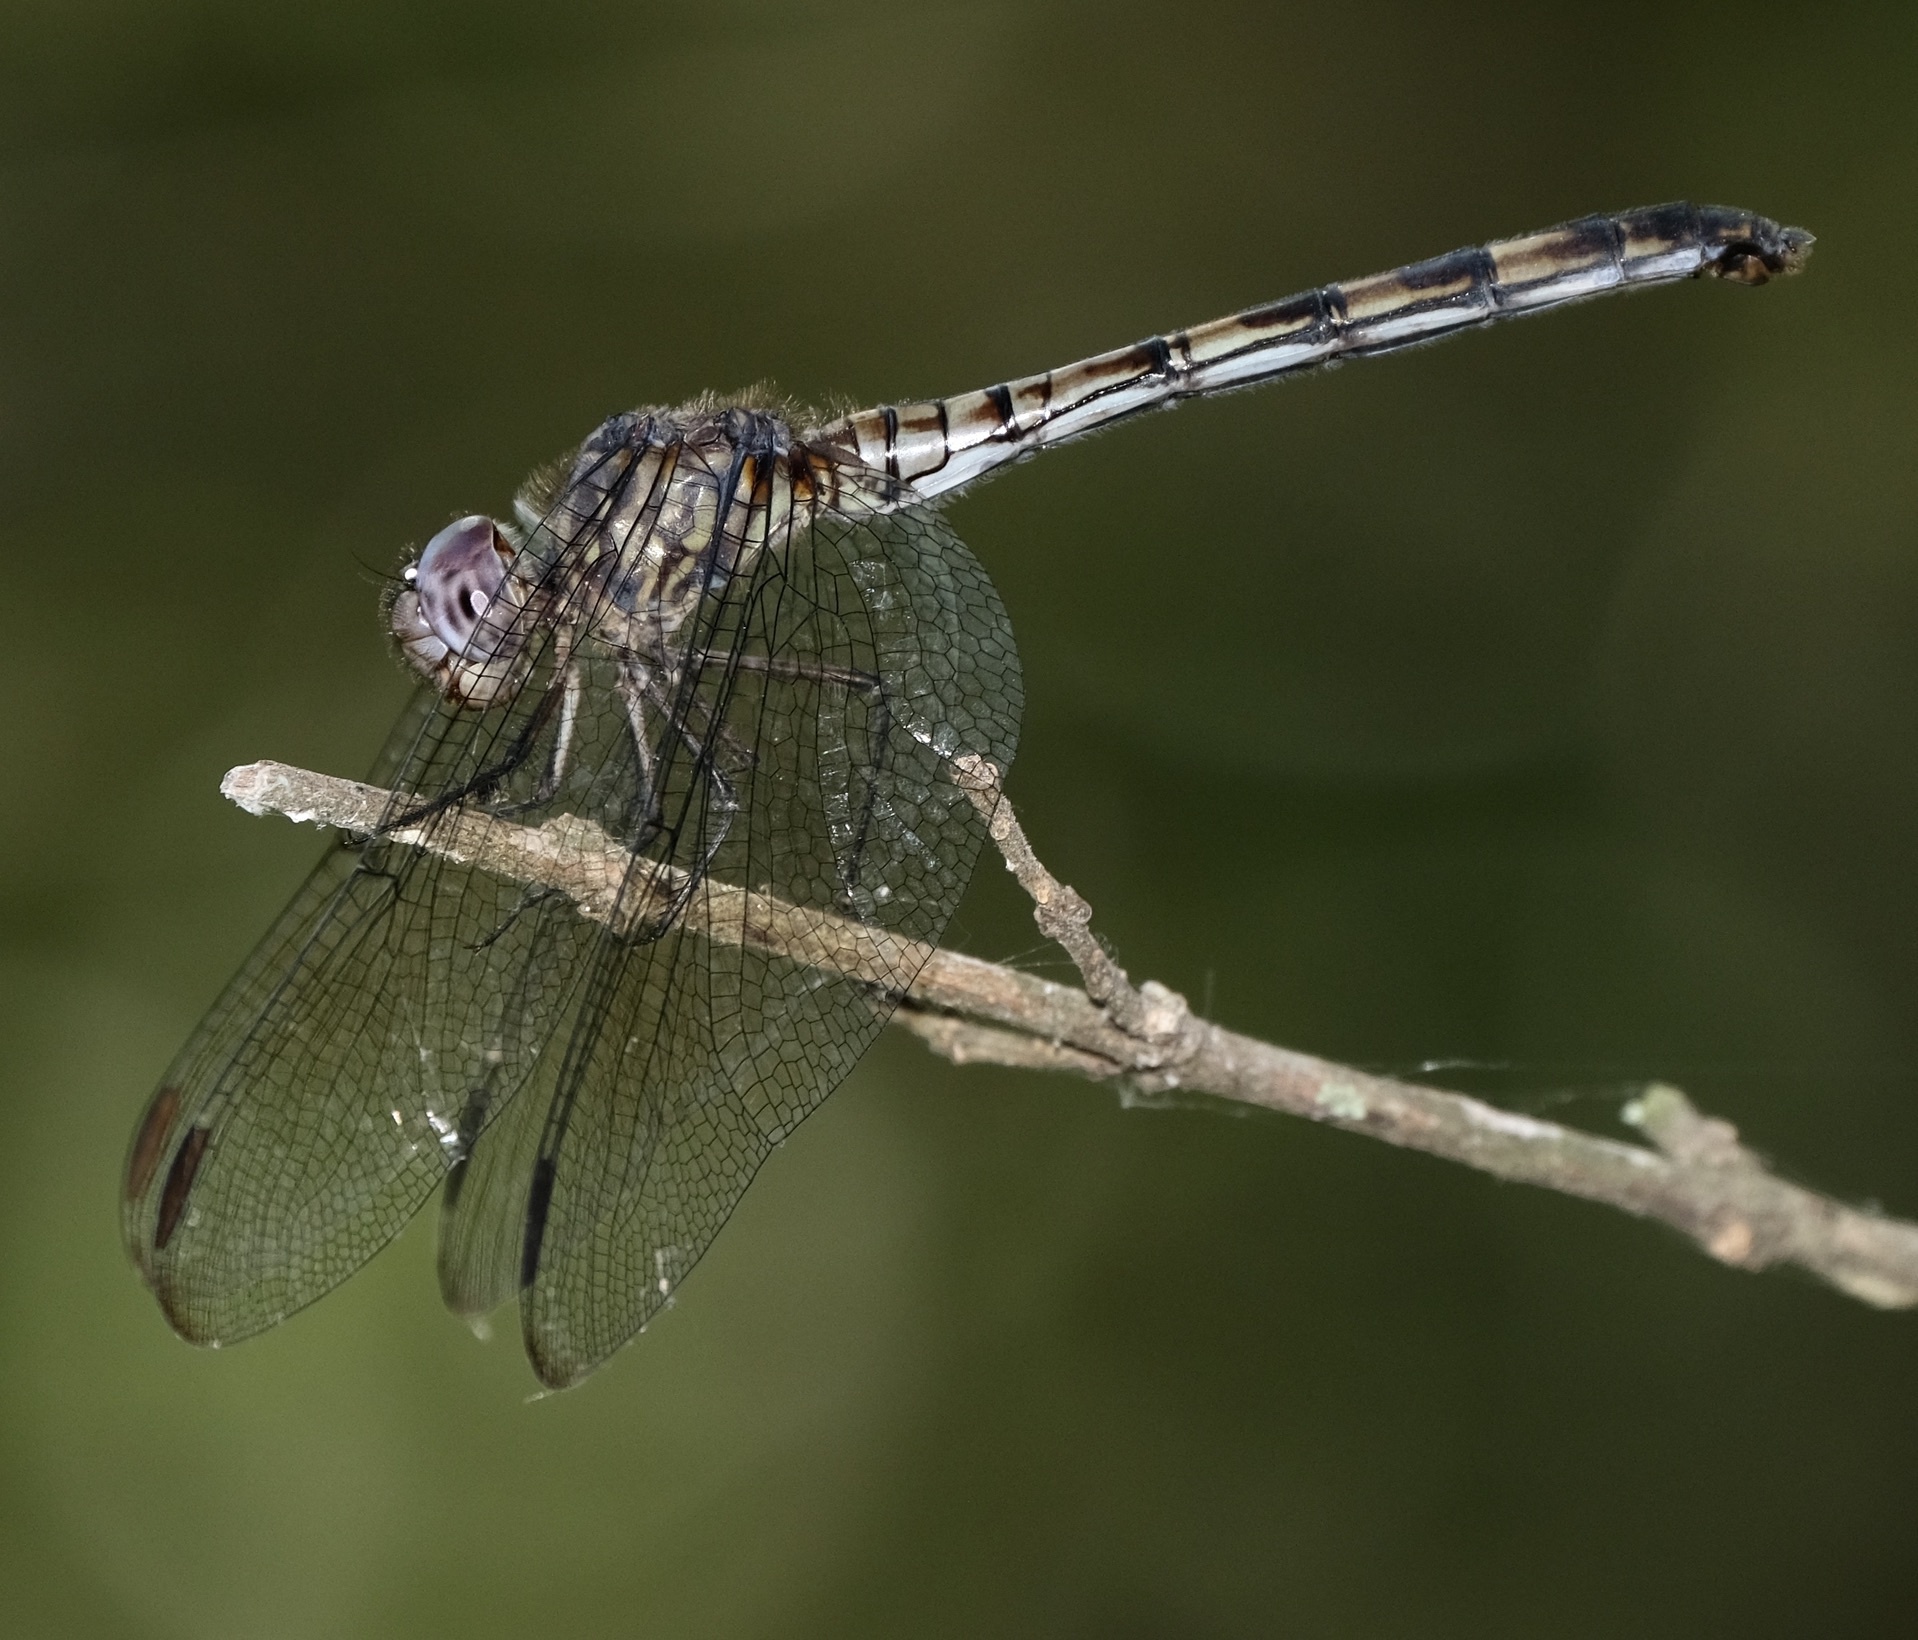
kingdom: Animalia
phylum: Arthropoda
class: Insecta
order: Odonata
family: Libellulidae
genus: Dythemis
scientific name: Dythemis nigrescens
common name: Black setwing
